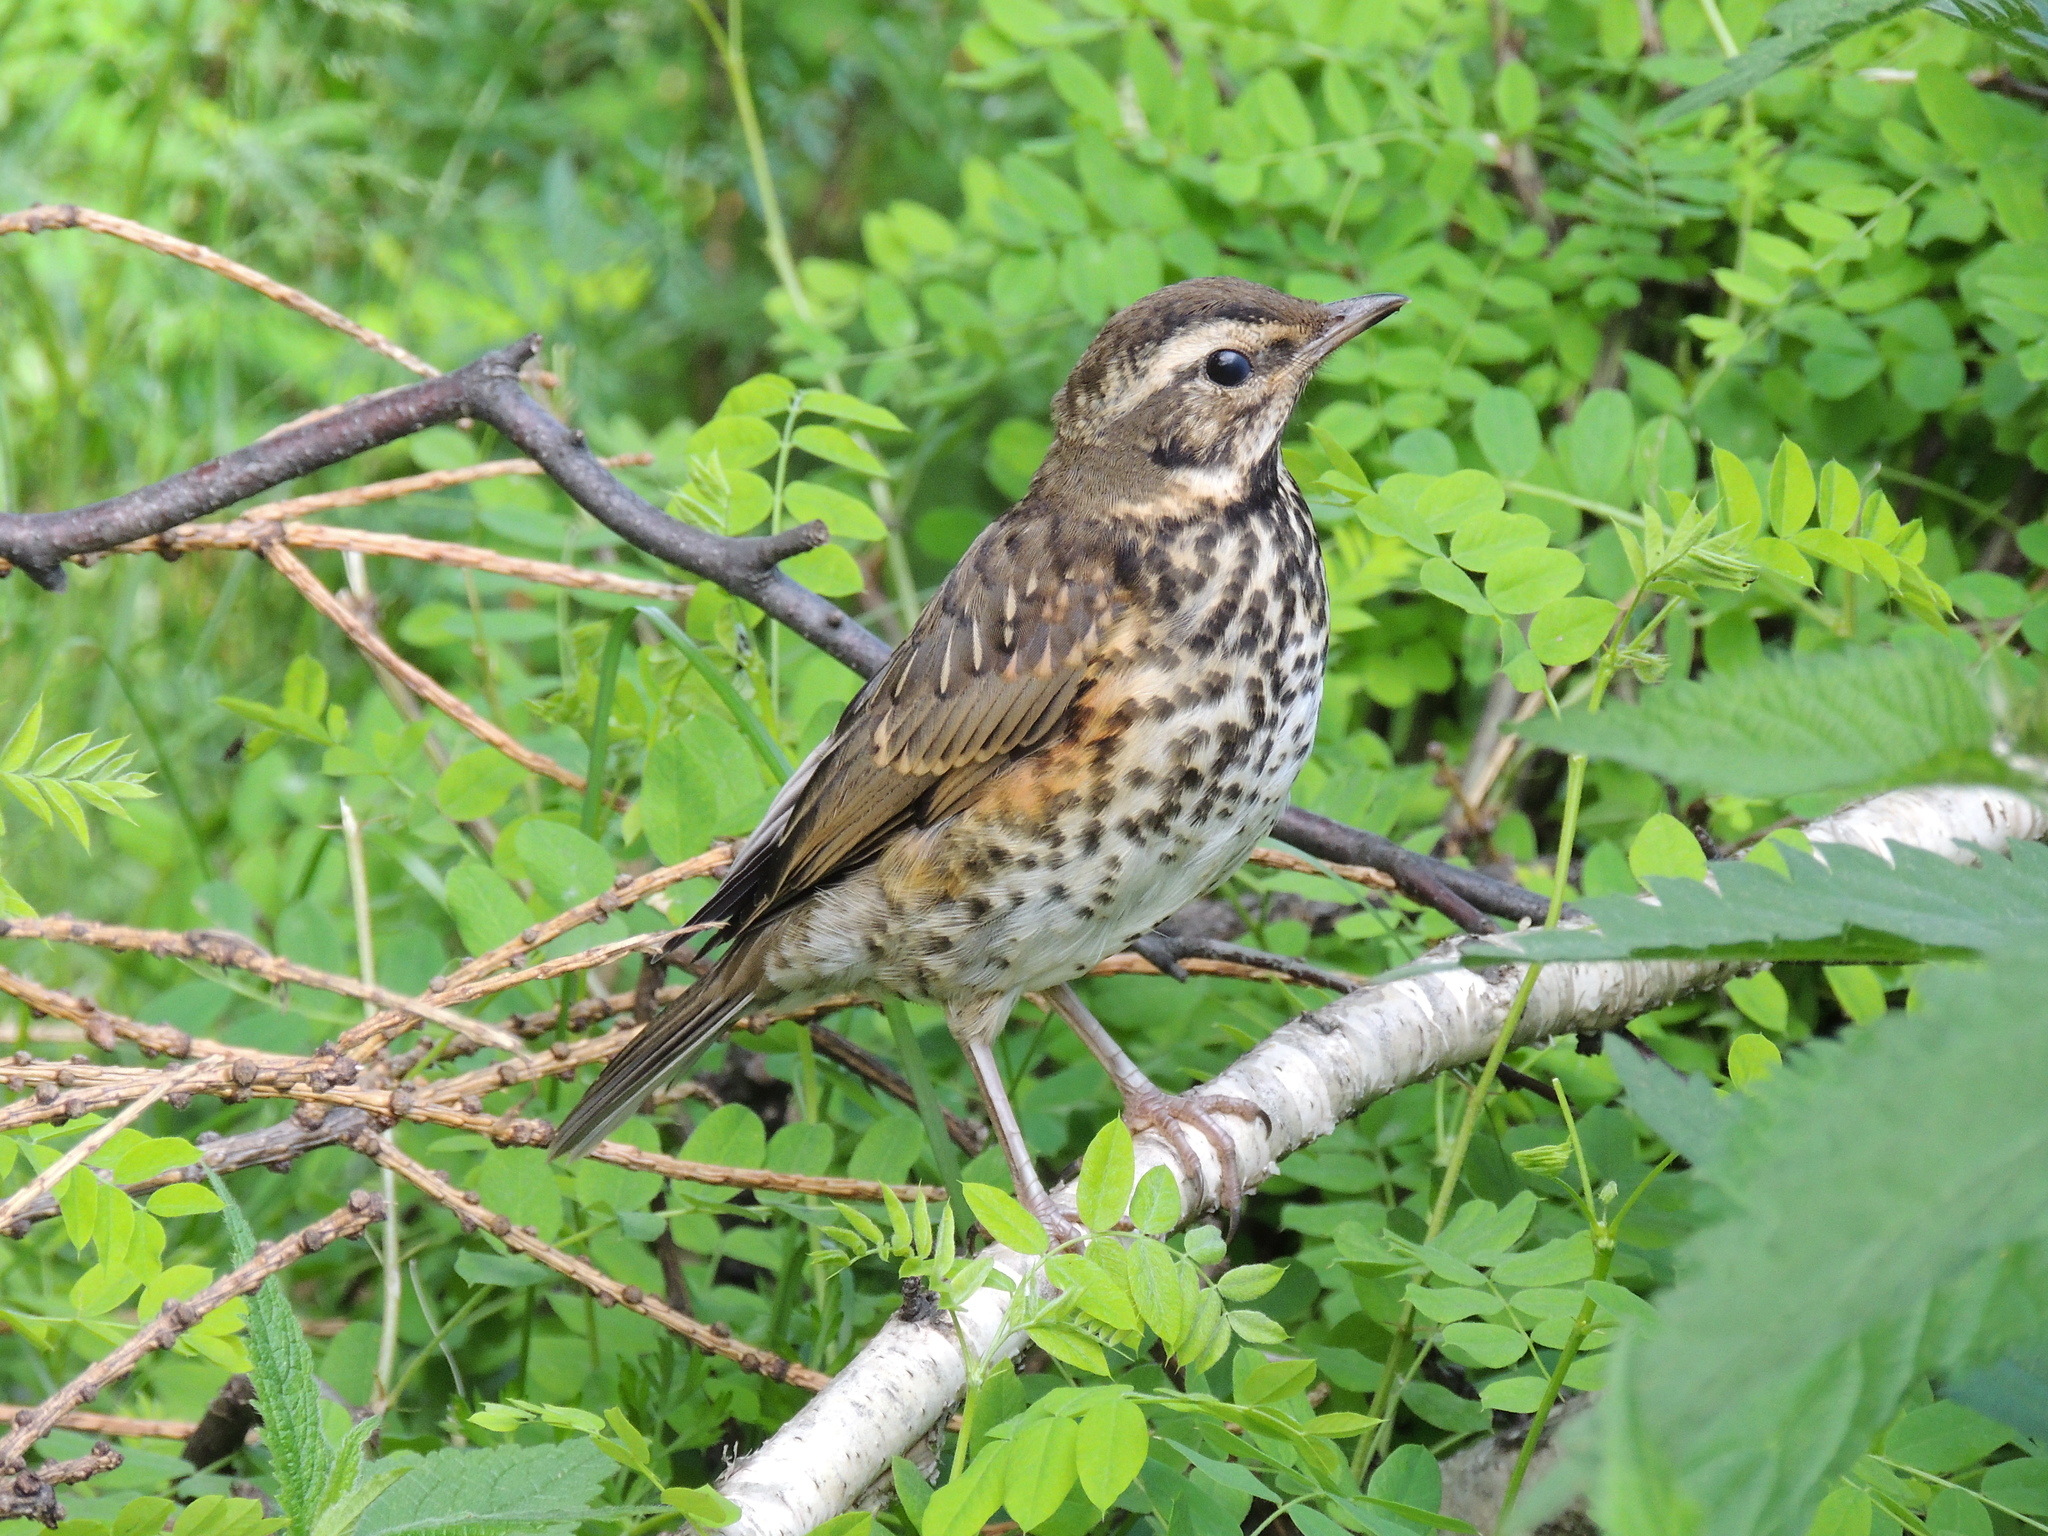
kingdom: Animalia
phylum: Chordata
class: Aves
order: Passeriformes
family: Turdidae
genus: Turdus
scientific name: Turdus iliacus
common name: Redwing
